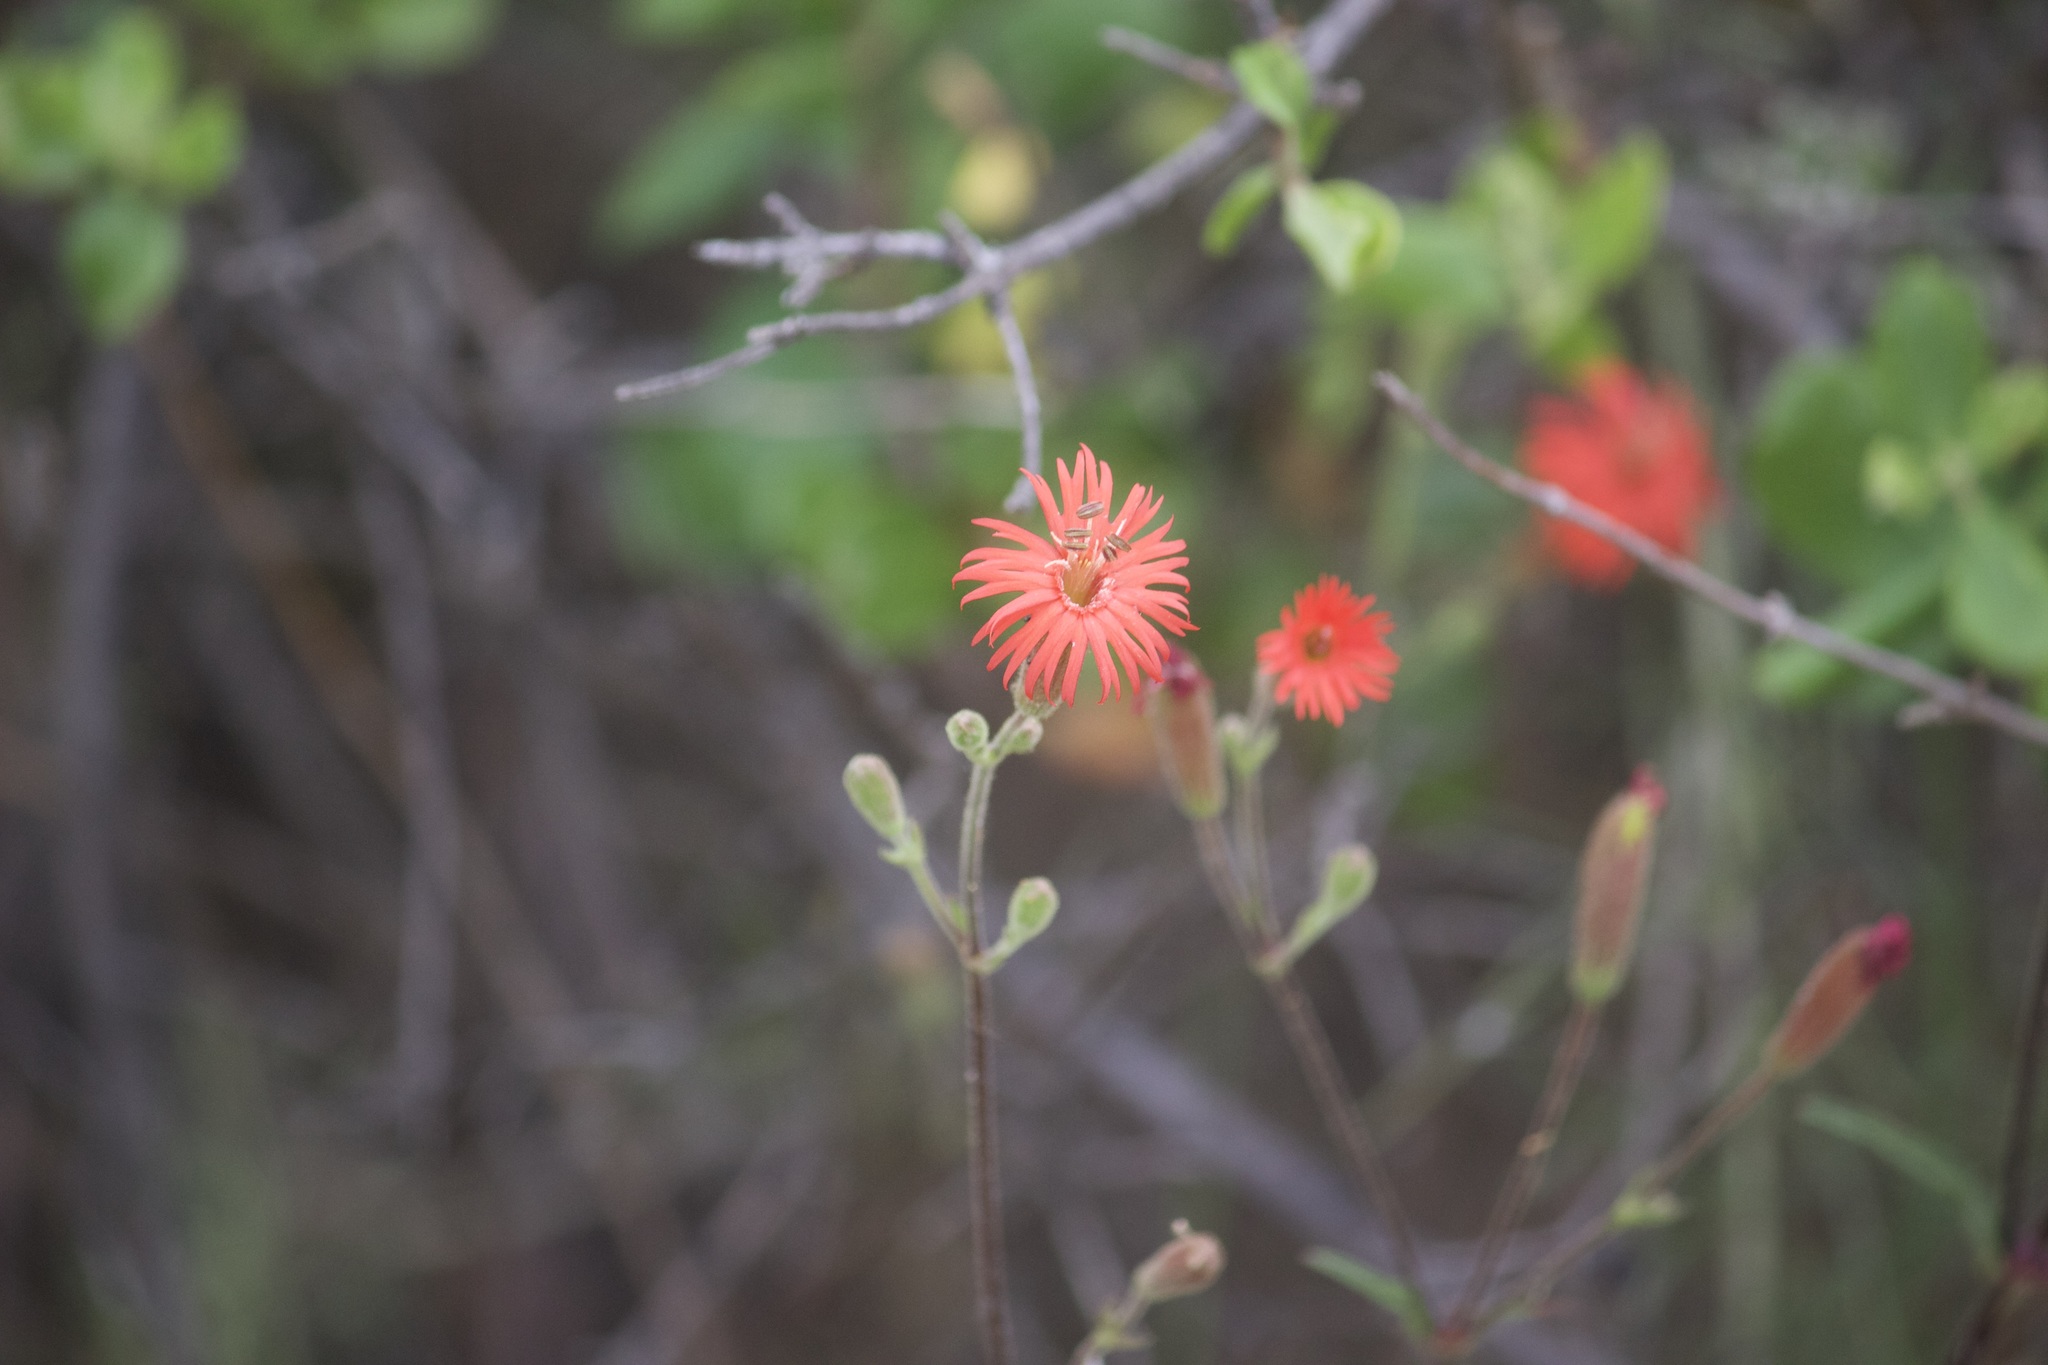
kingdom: Plantae
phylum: Tracheophyta
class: Magnoliopsida
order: Caryophyllales
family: Caryophyllaceae
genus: Silene
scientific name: Silene laciniata
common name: Indian-pink
